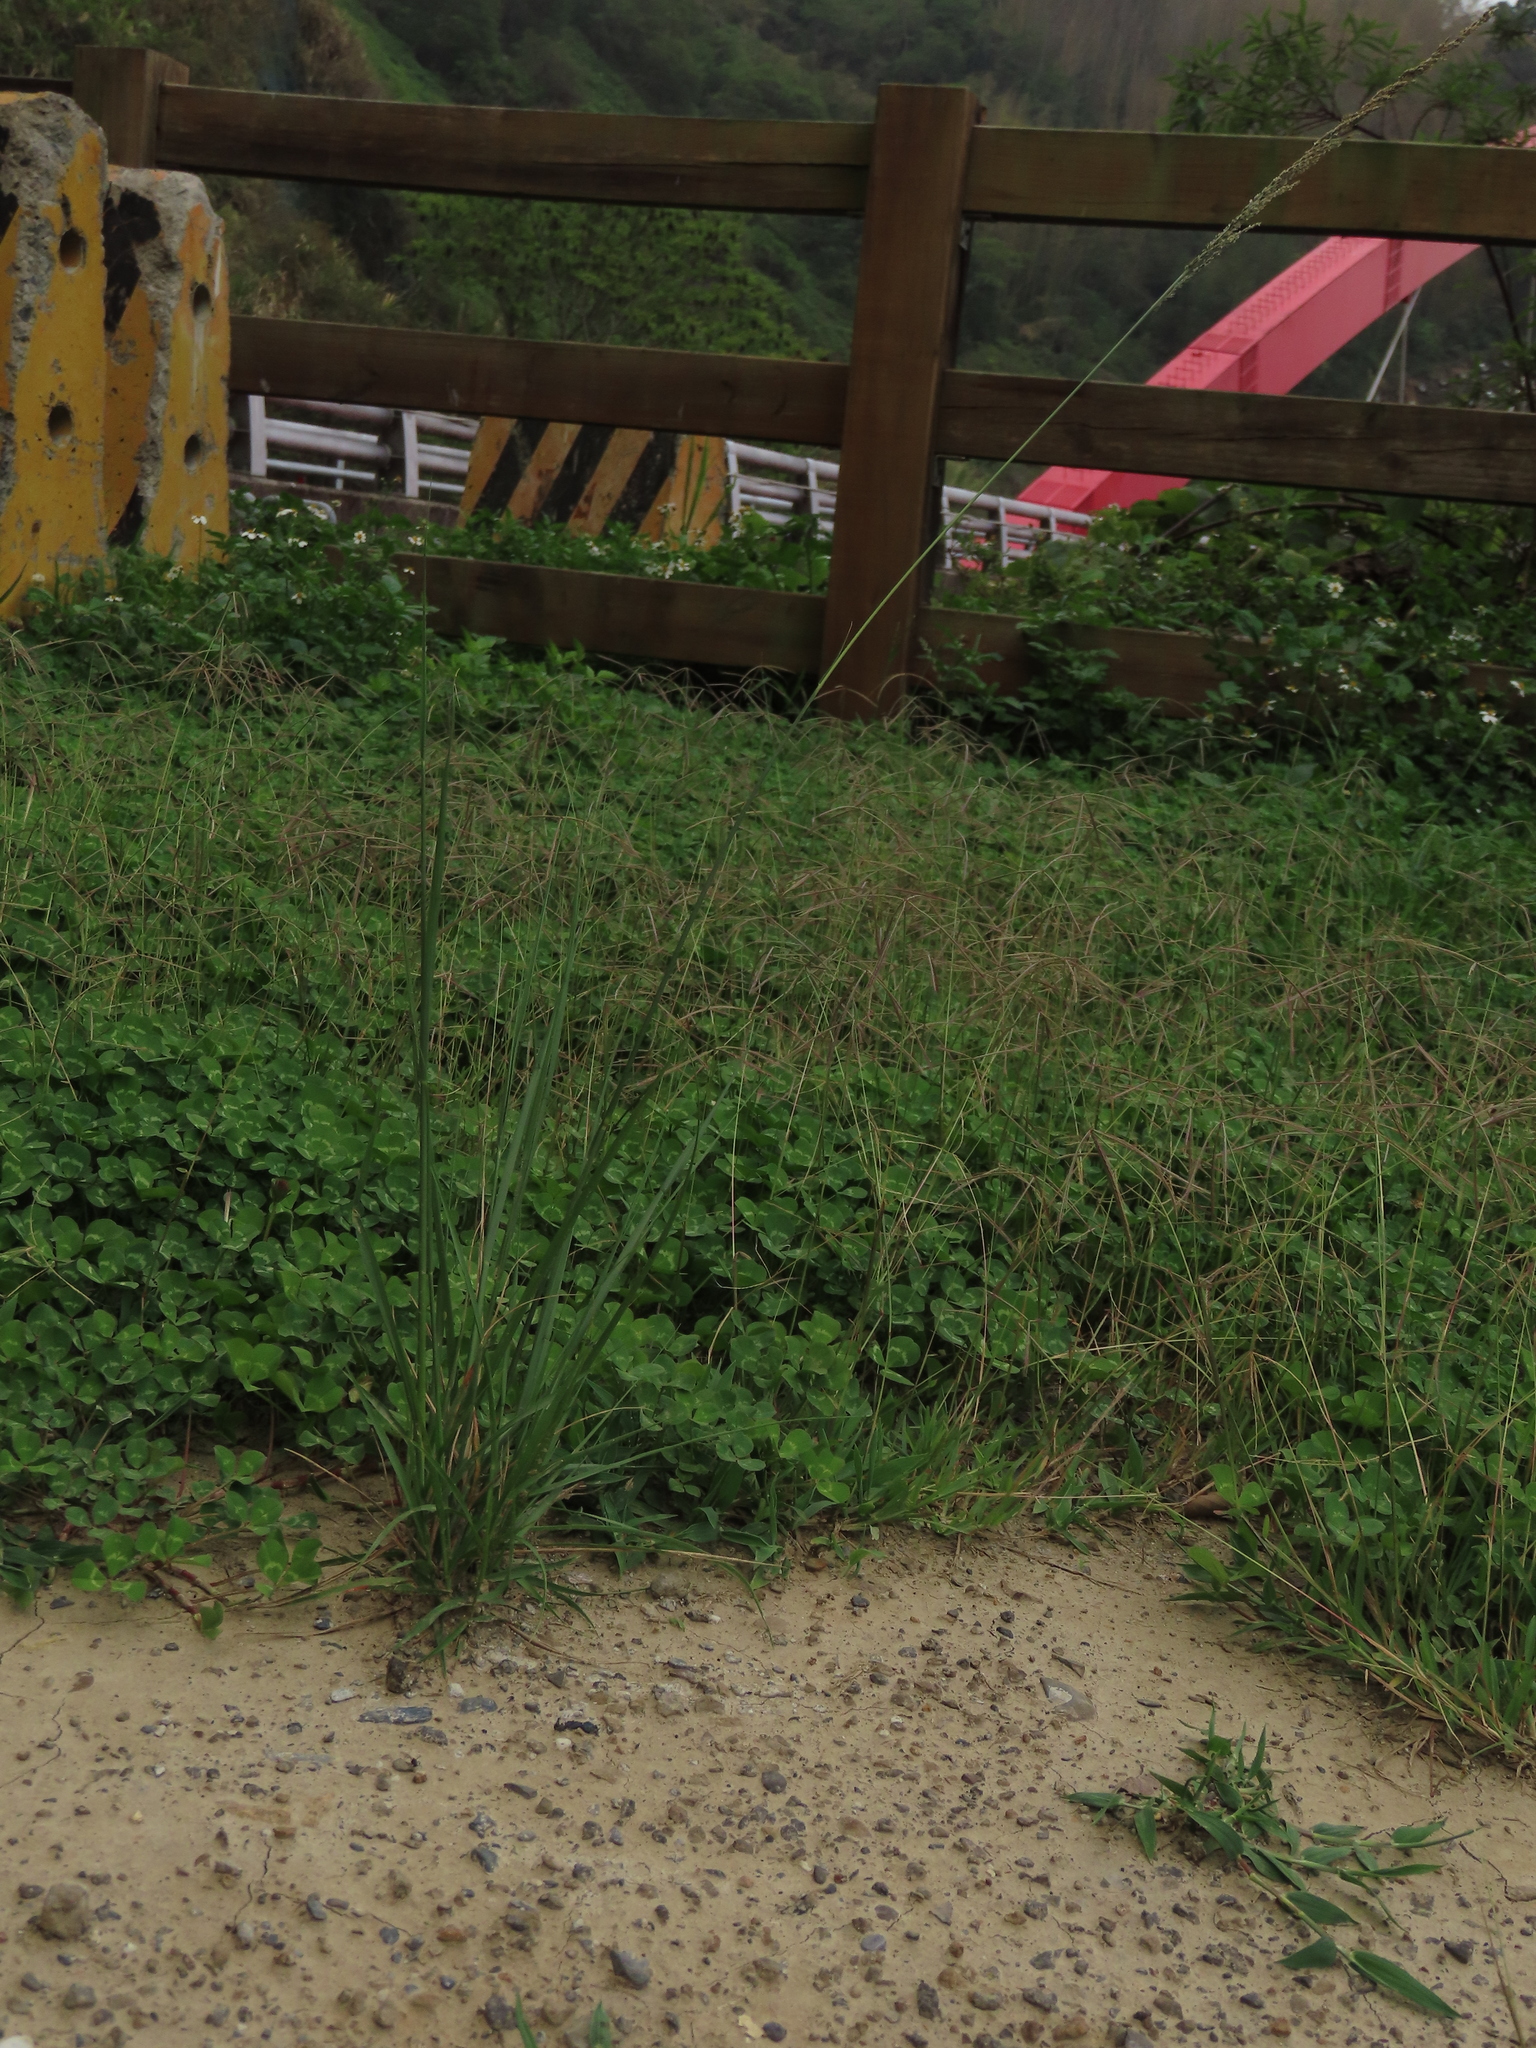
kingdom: Plantae
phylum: Tracheophyta
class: Liliopsida
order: Poales
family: Poaceae
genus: Sporobolus
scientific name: Sporobolus indicus
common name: Smut grass
